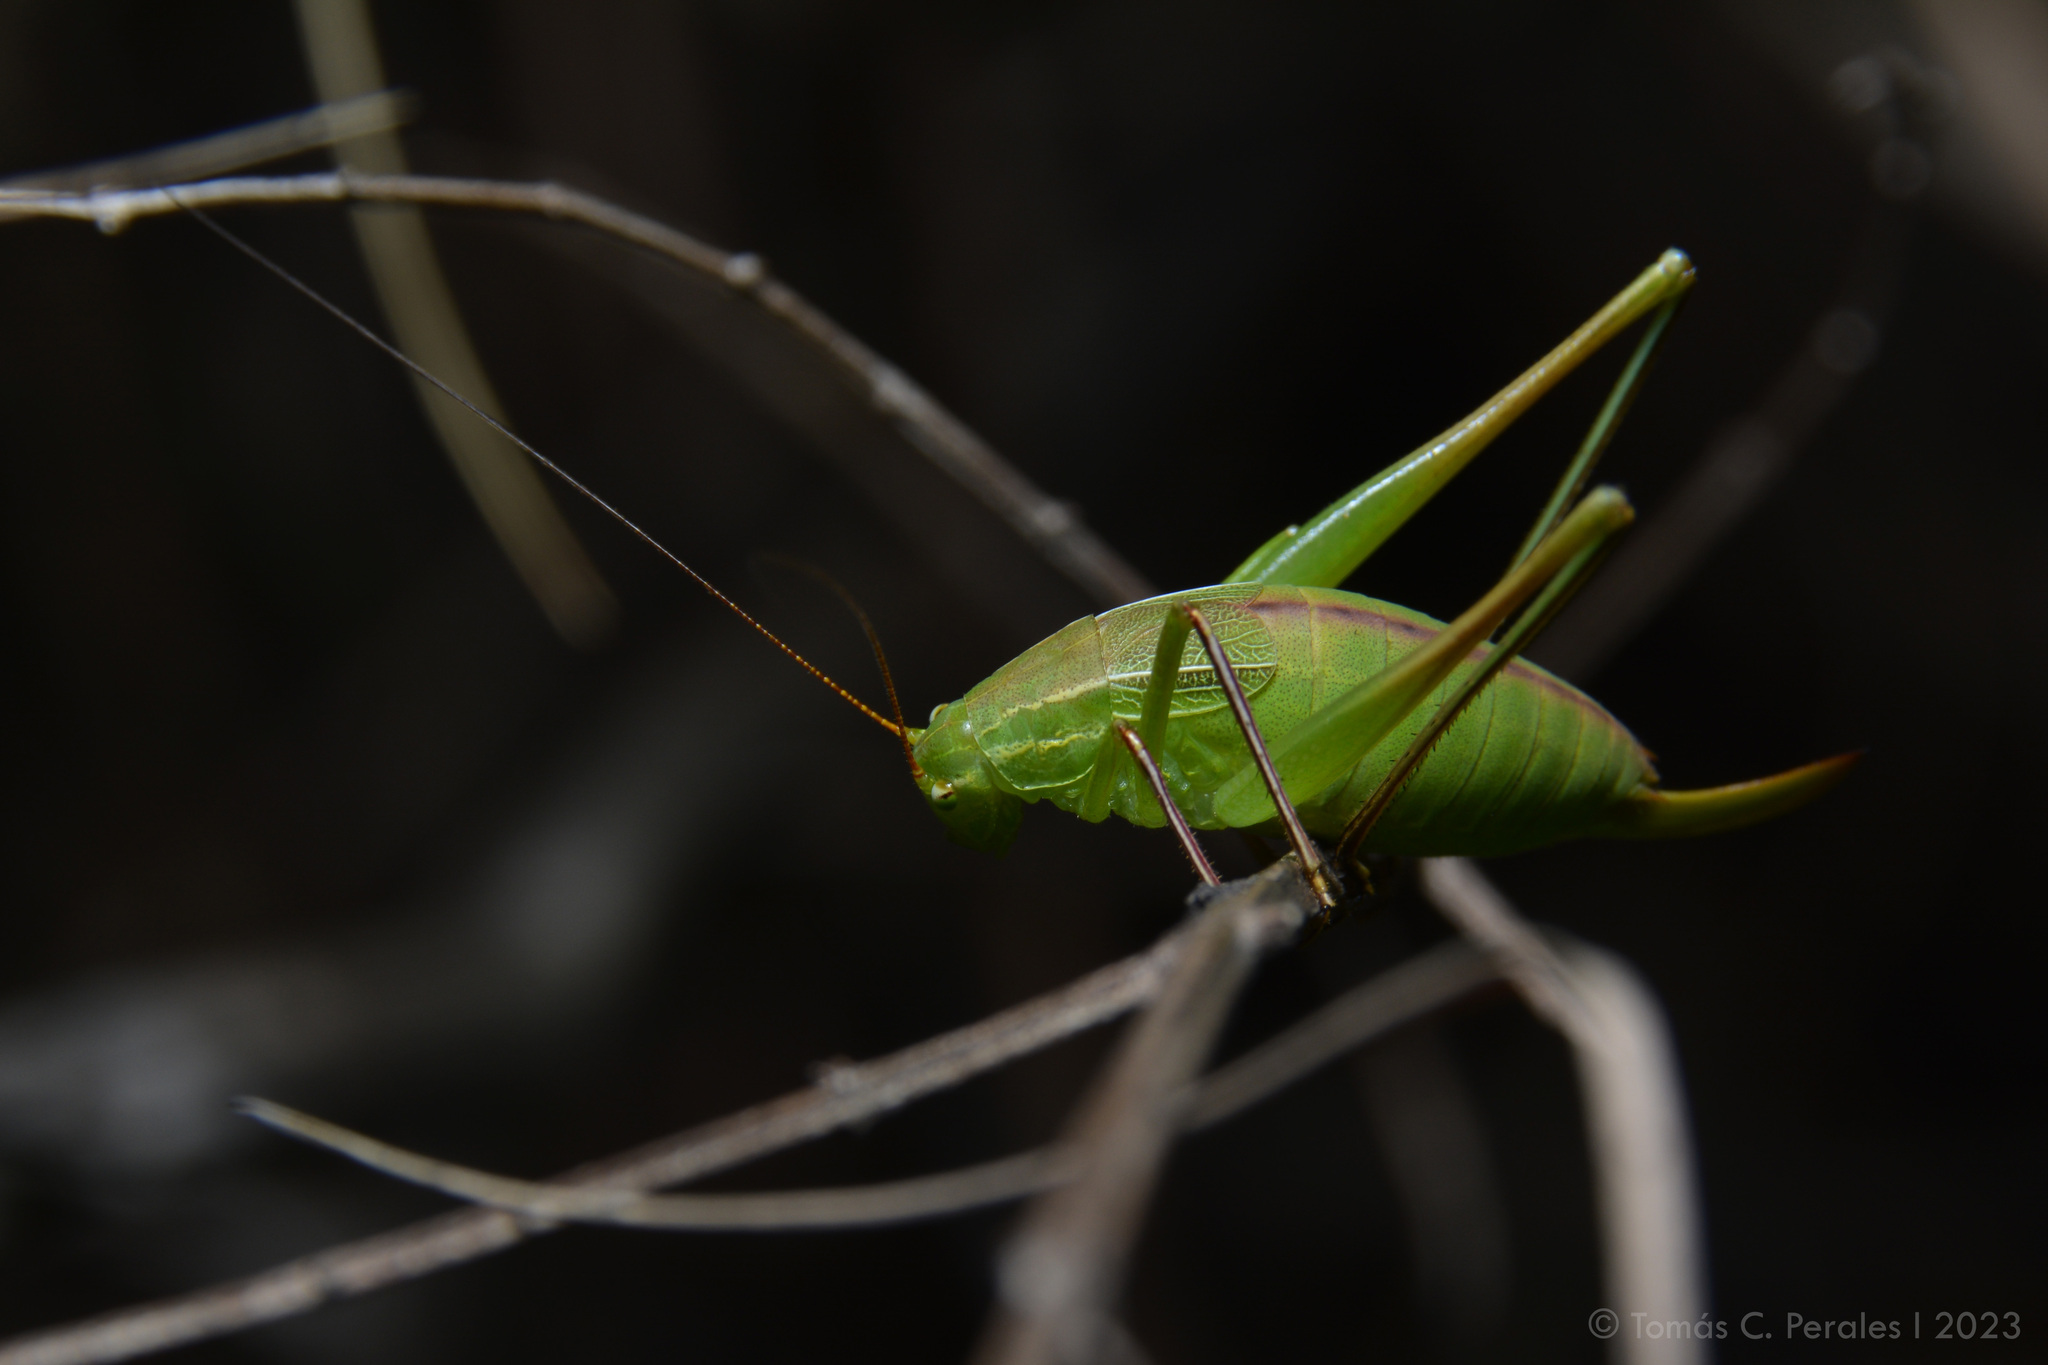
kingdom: Animalia
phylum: Arthropoda
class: Insecta
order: Orthoptera
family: Tettigoniidae
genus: Anisophya
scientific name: Anisophya brasiliensis
